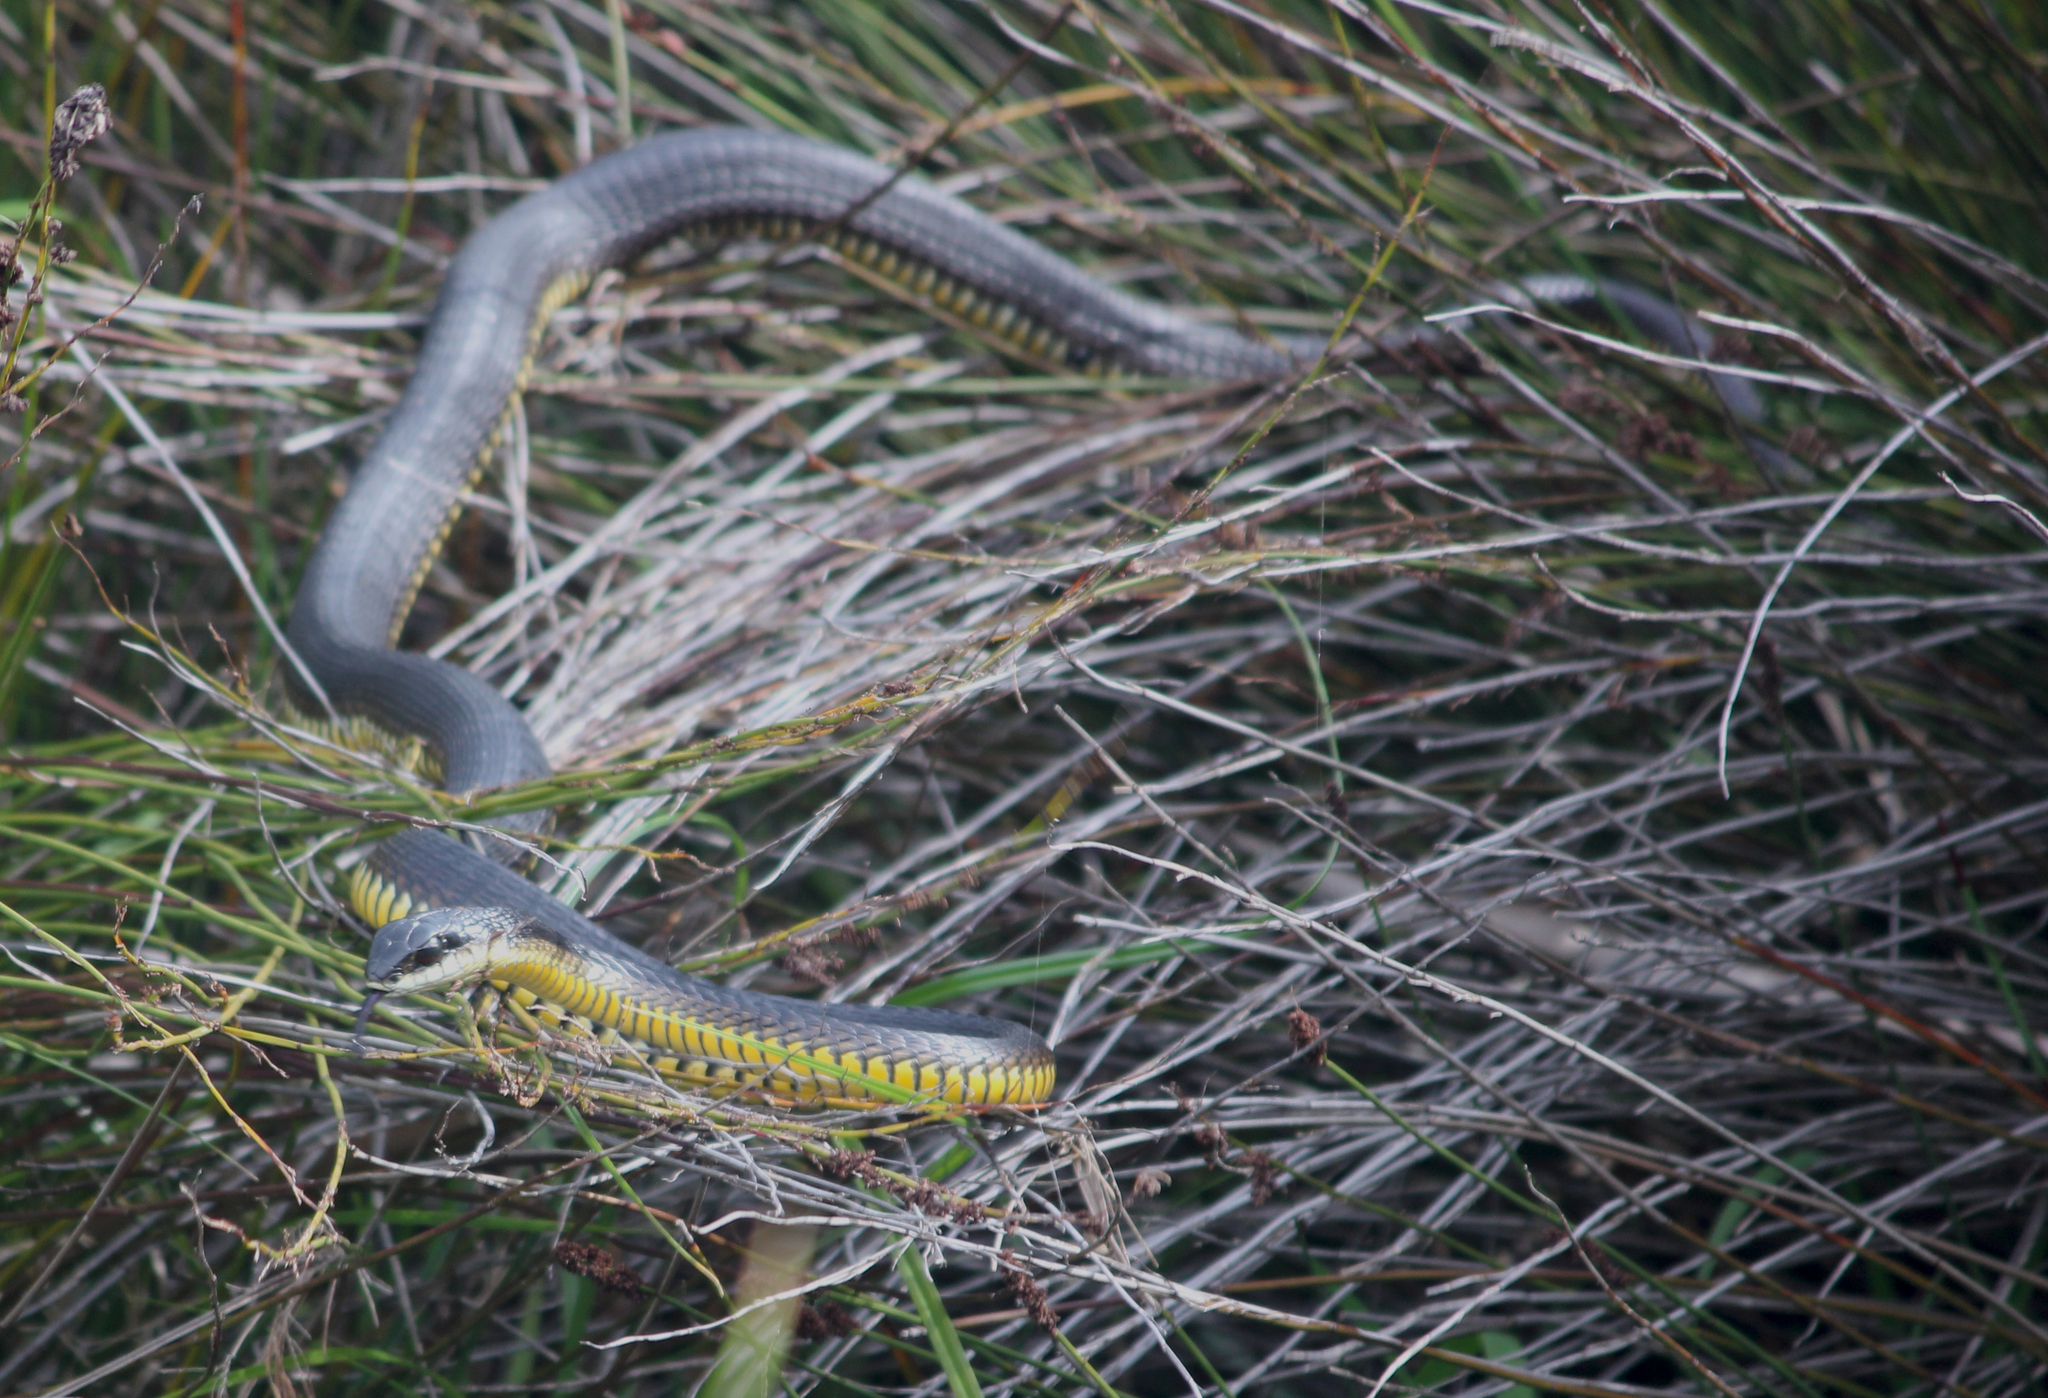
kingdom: Animalia
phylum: Chordata
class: Squamata
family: Colubridae
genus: Dispholidus
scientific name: Dispholidus typus
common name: Boomslang
